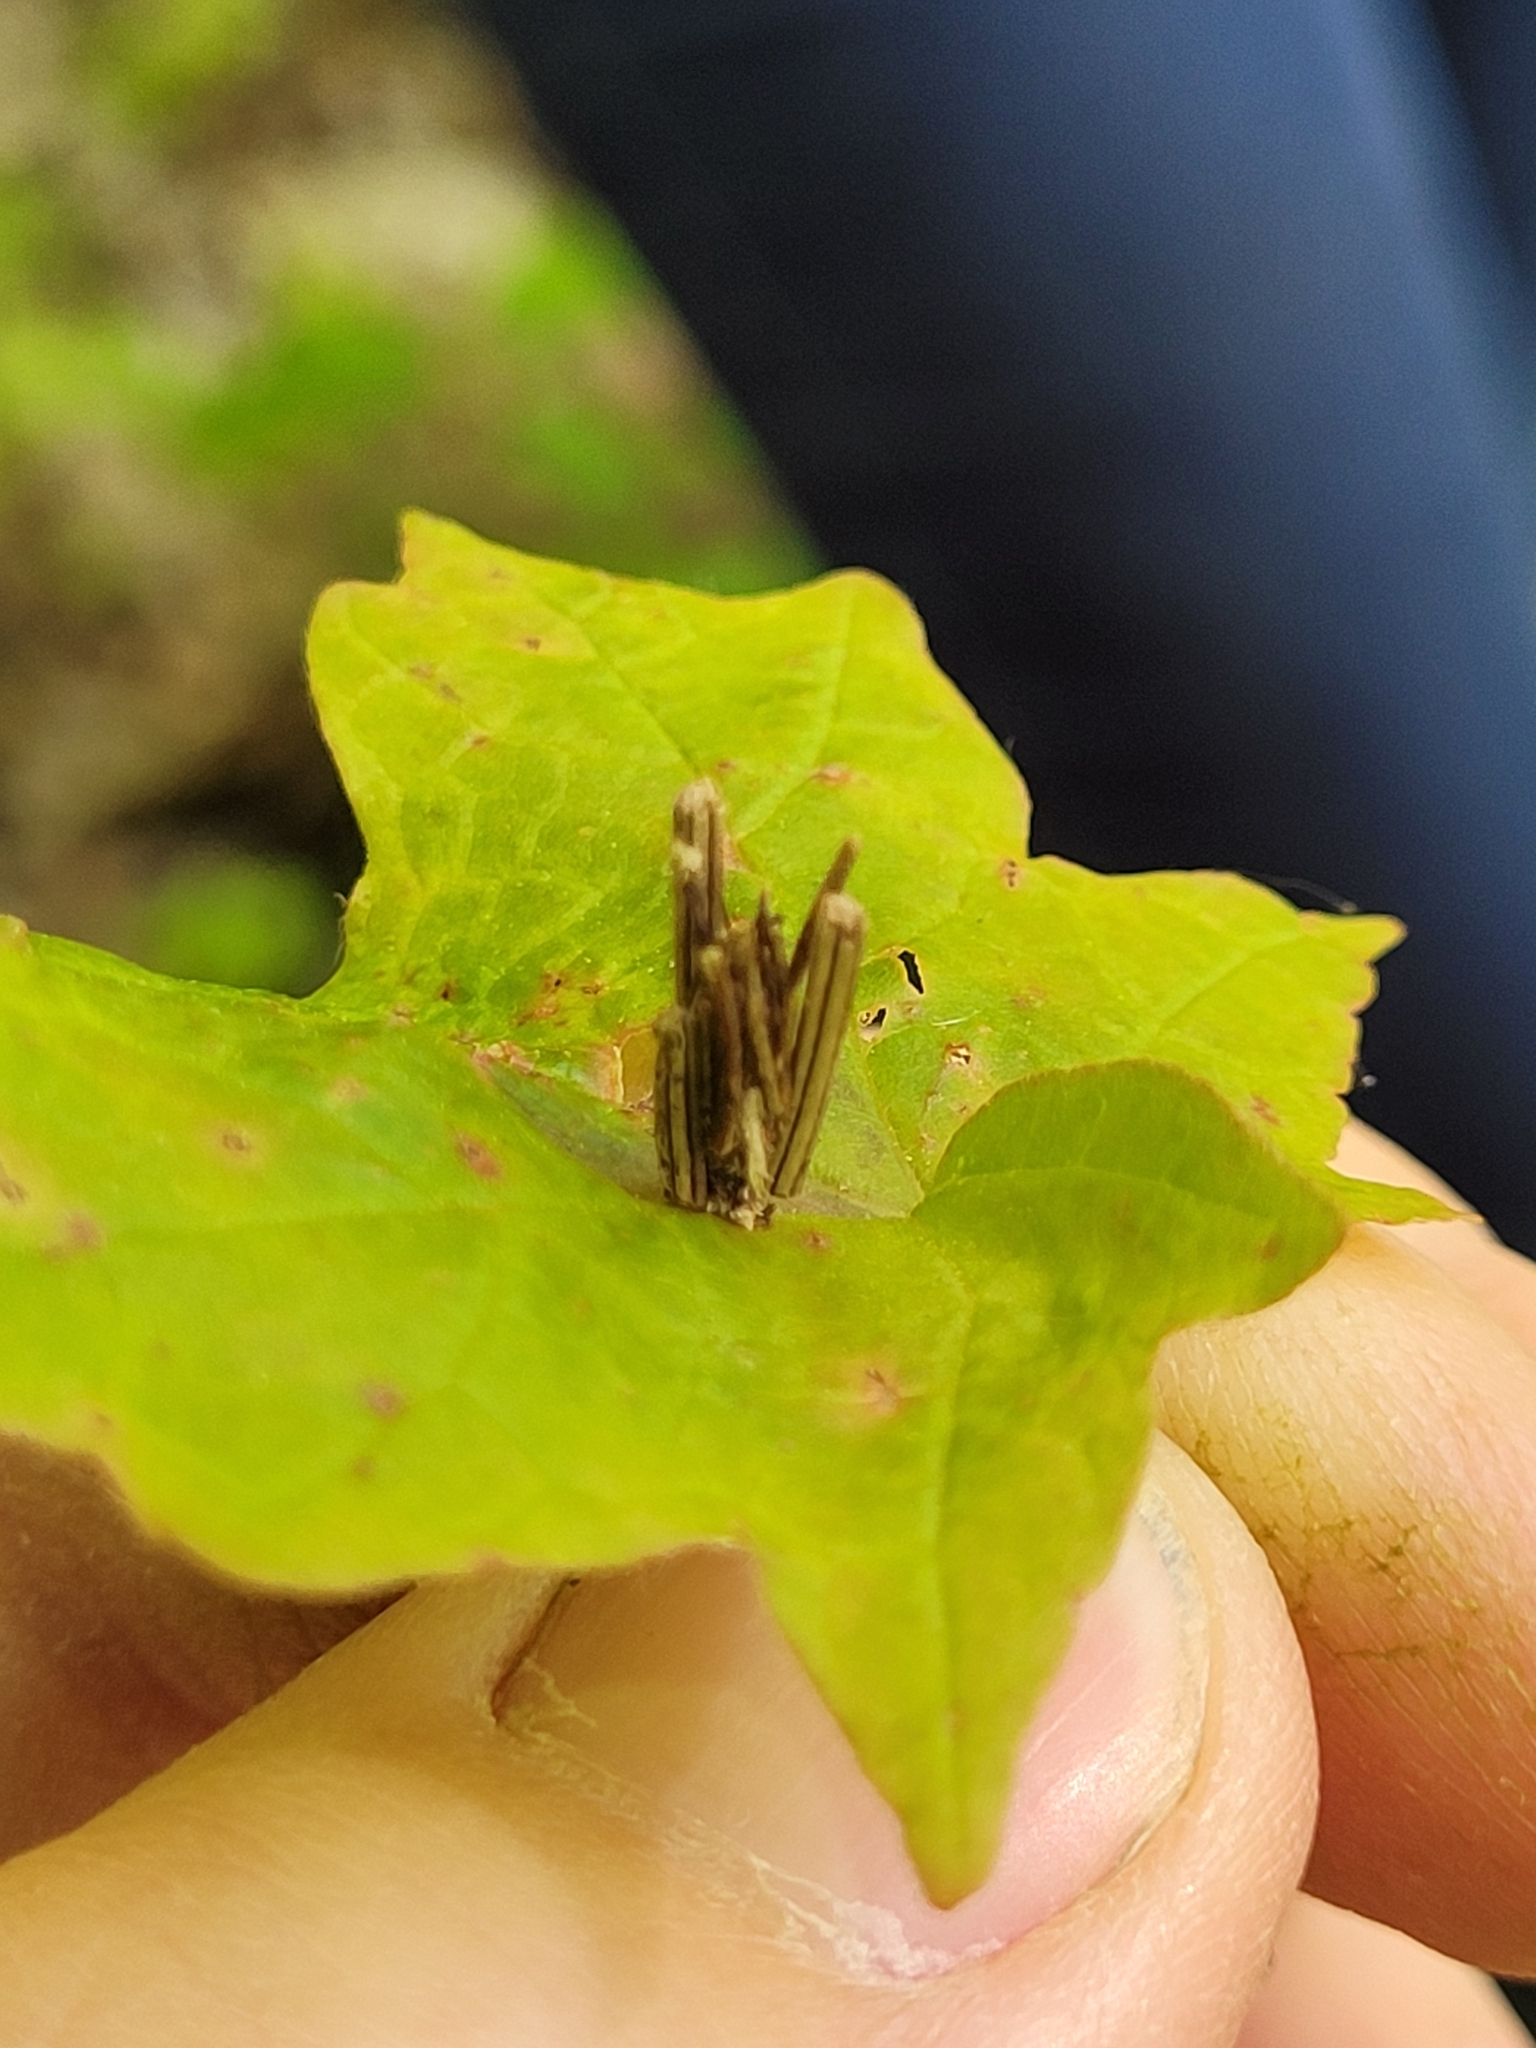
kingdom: Animalia
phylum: Arthropoda
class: Insecta
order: Lepidoptera
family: Psychidae
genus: Psyche
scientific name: Psyche casta
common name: Common sweep
